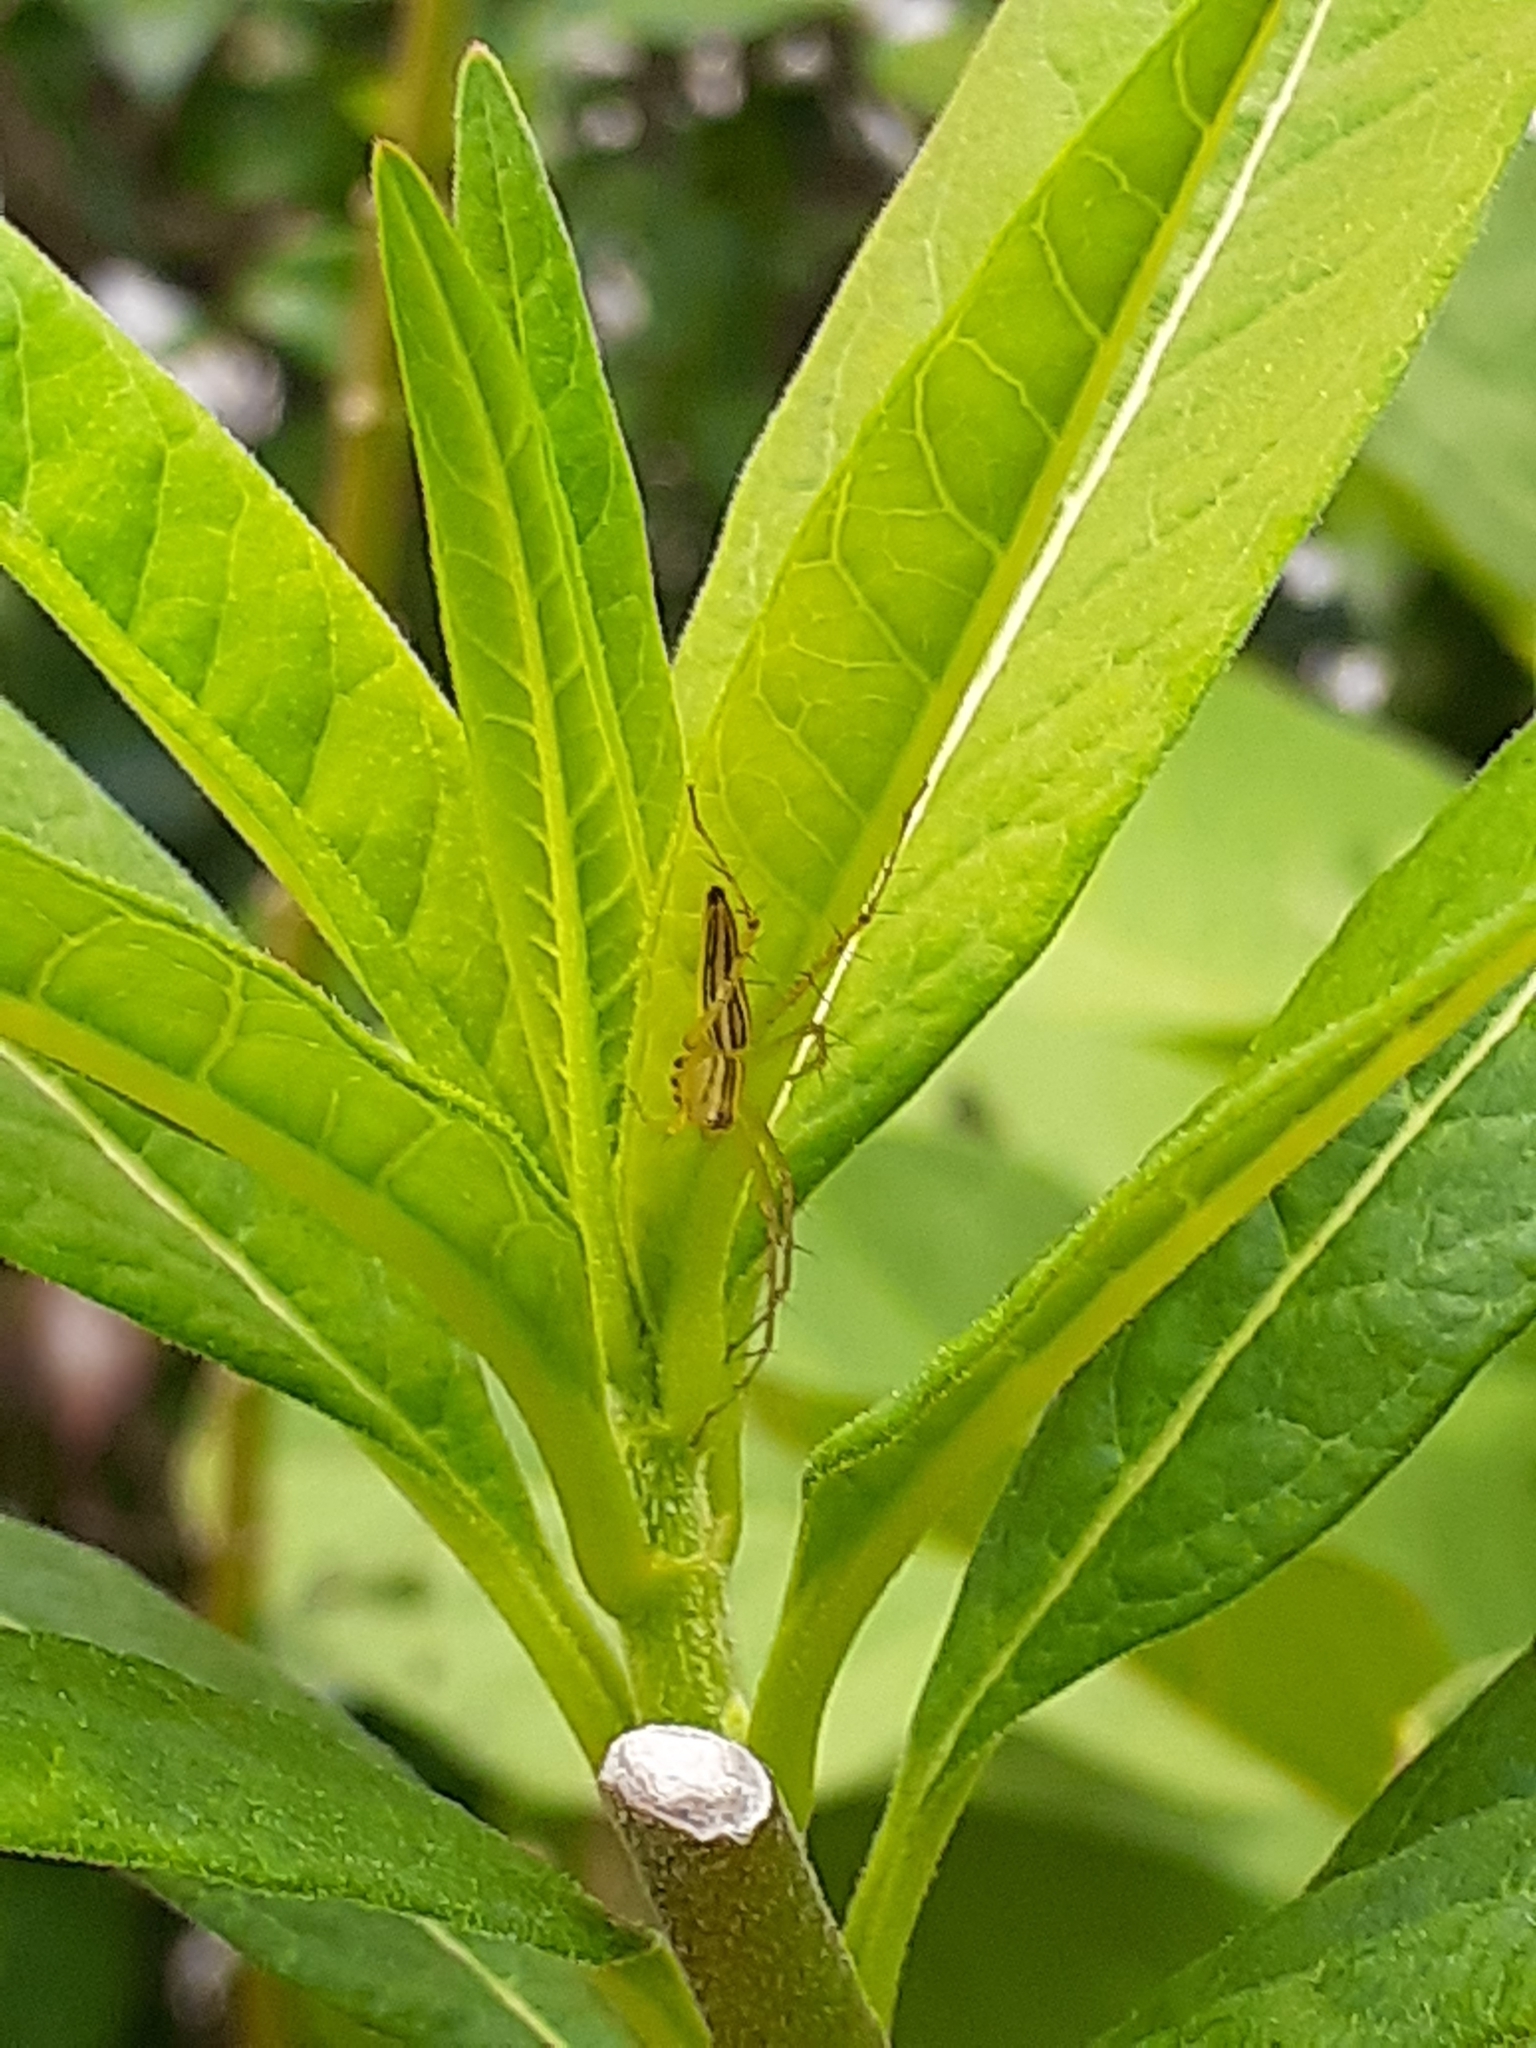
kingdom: Animalia
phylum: Arthropoda
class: Arachnida
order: Araneae
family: Oxyopidae
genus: Oxyopes
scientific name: Oxyopes macilentus
